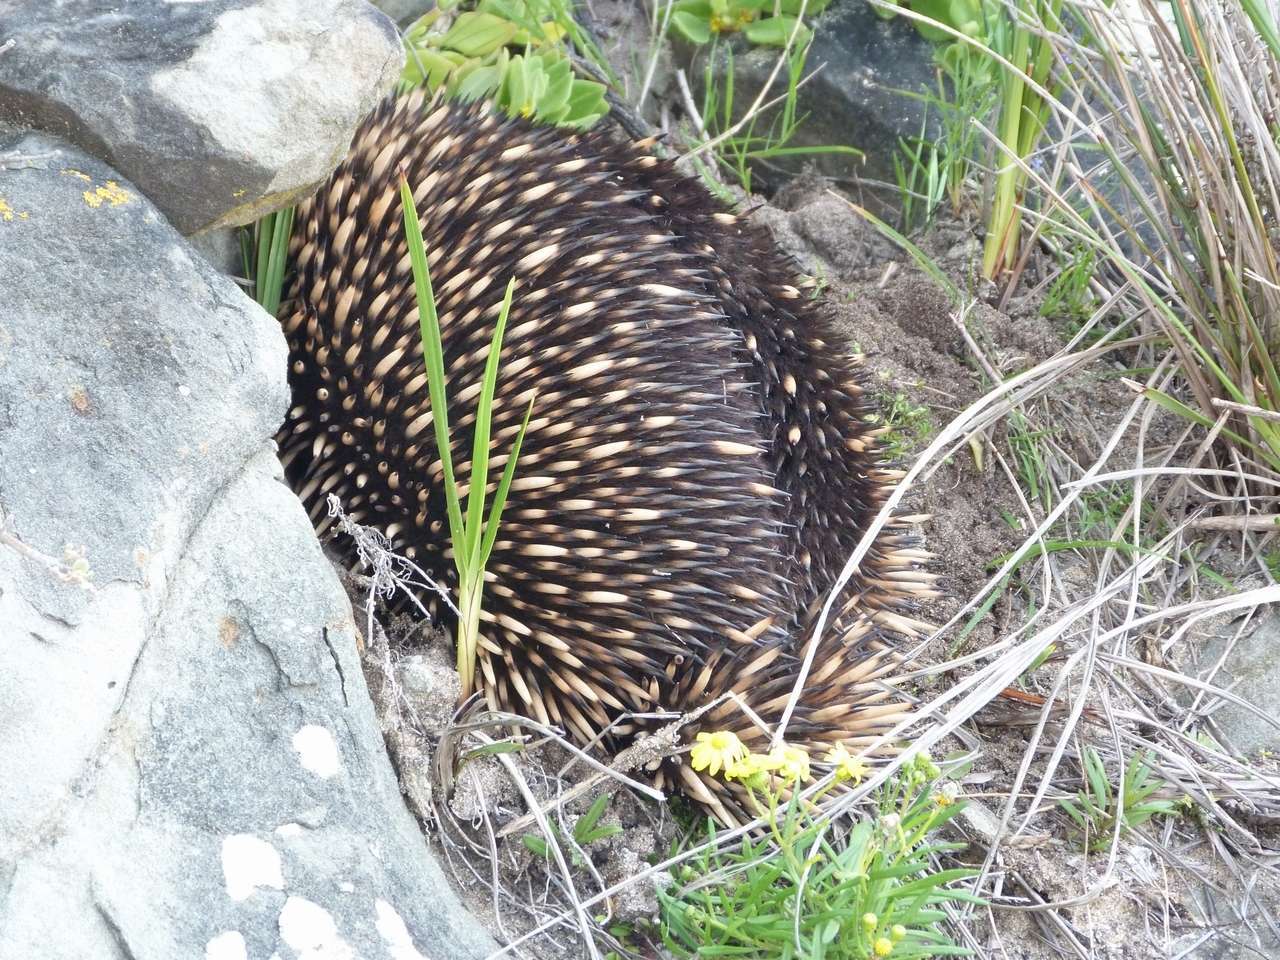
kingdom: Animalia
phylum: Chordata
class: Mammalia
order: Monotremata
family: Tachyglossidae
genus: Tachyglossus
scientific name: Tachyglossus aculeatus
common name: Short-beaked echidna
